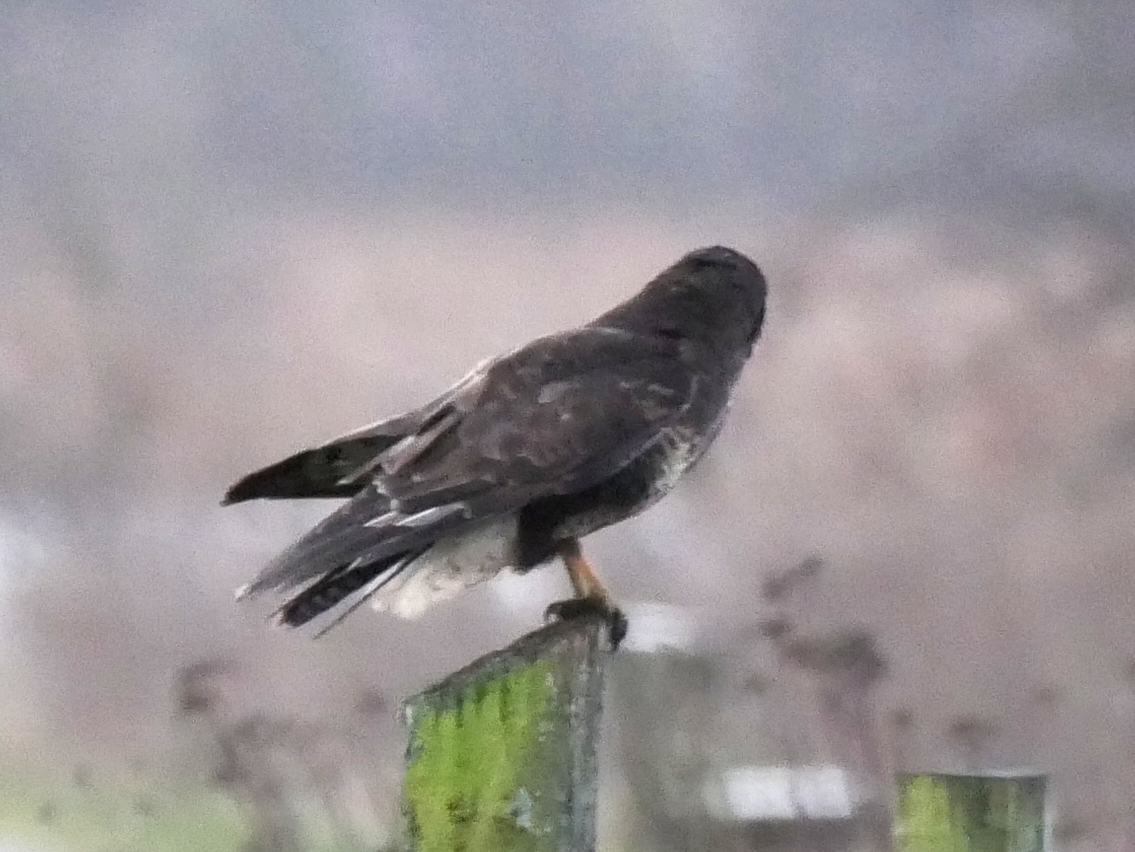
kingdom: Animalia
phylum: Chordata
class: Aves
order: Accipitriformes
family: Accipitridae
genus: Buteo
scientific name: Buteo buteo
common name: Common buzzard
